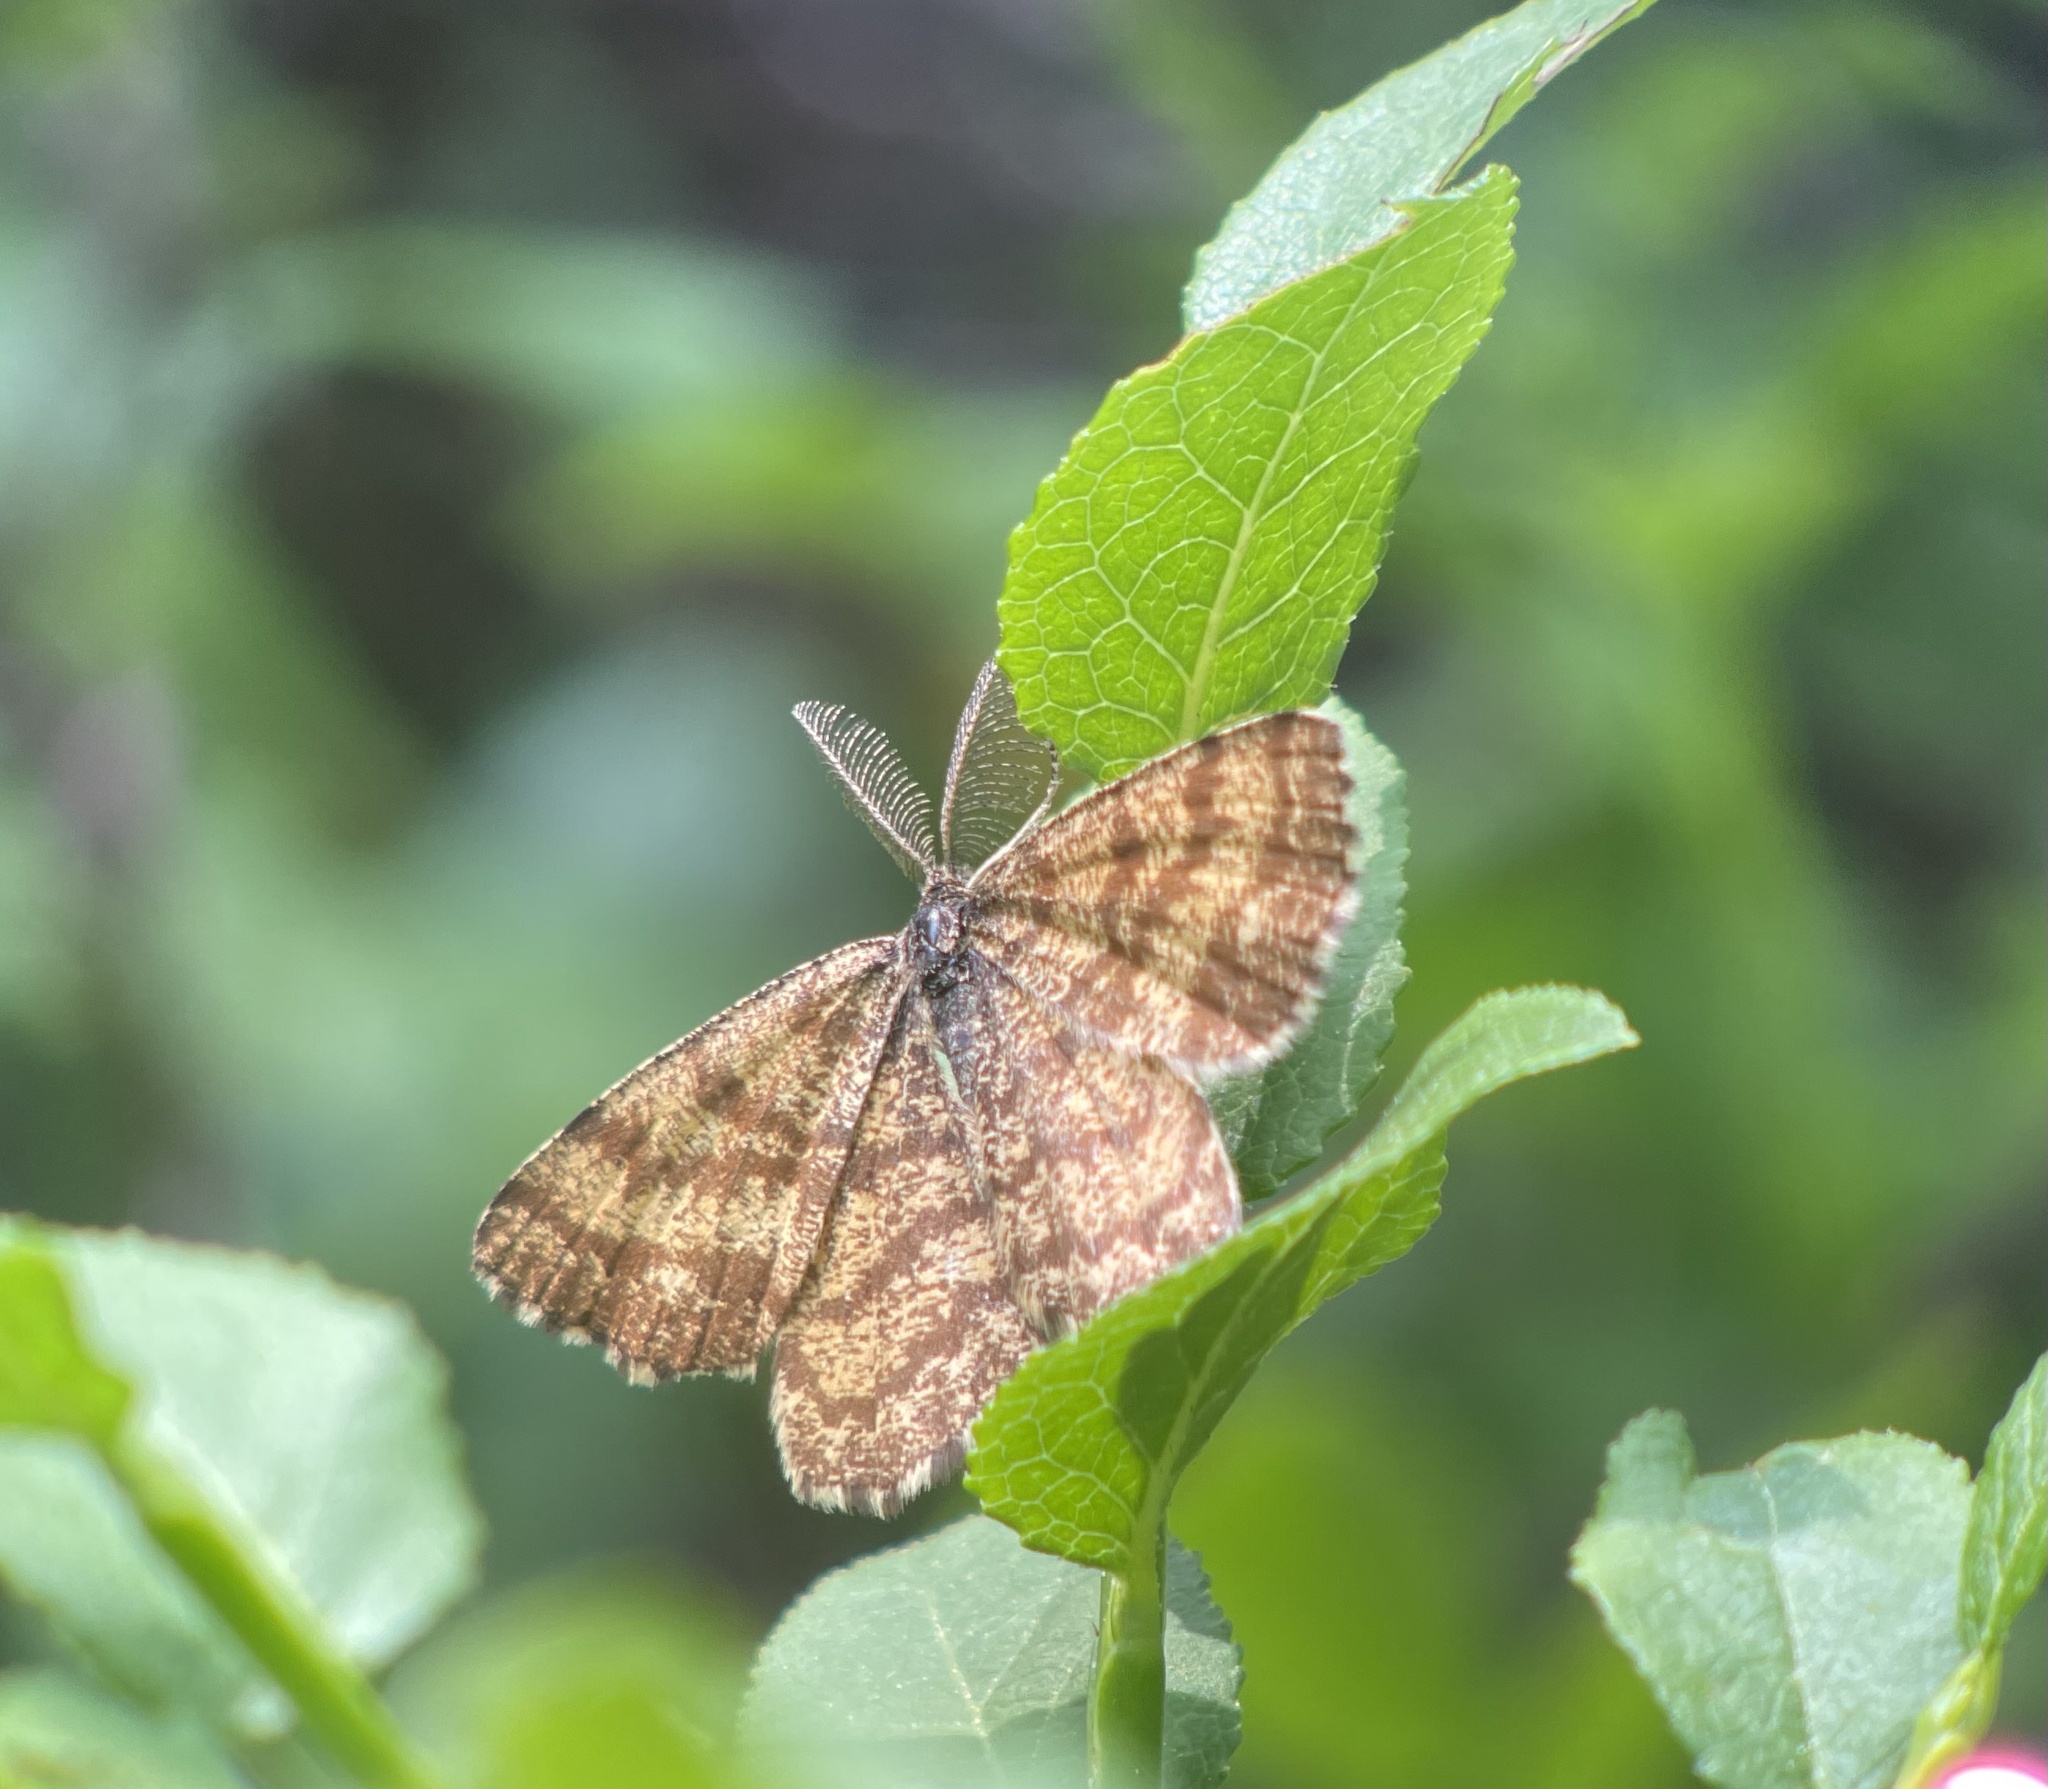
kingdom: Animalia
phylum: Arthropoda
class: Insecta
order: Lepidoptera
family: Geometridae
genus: Ematurga
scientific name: Ematurga atomaria
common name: Common heath
